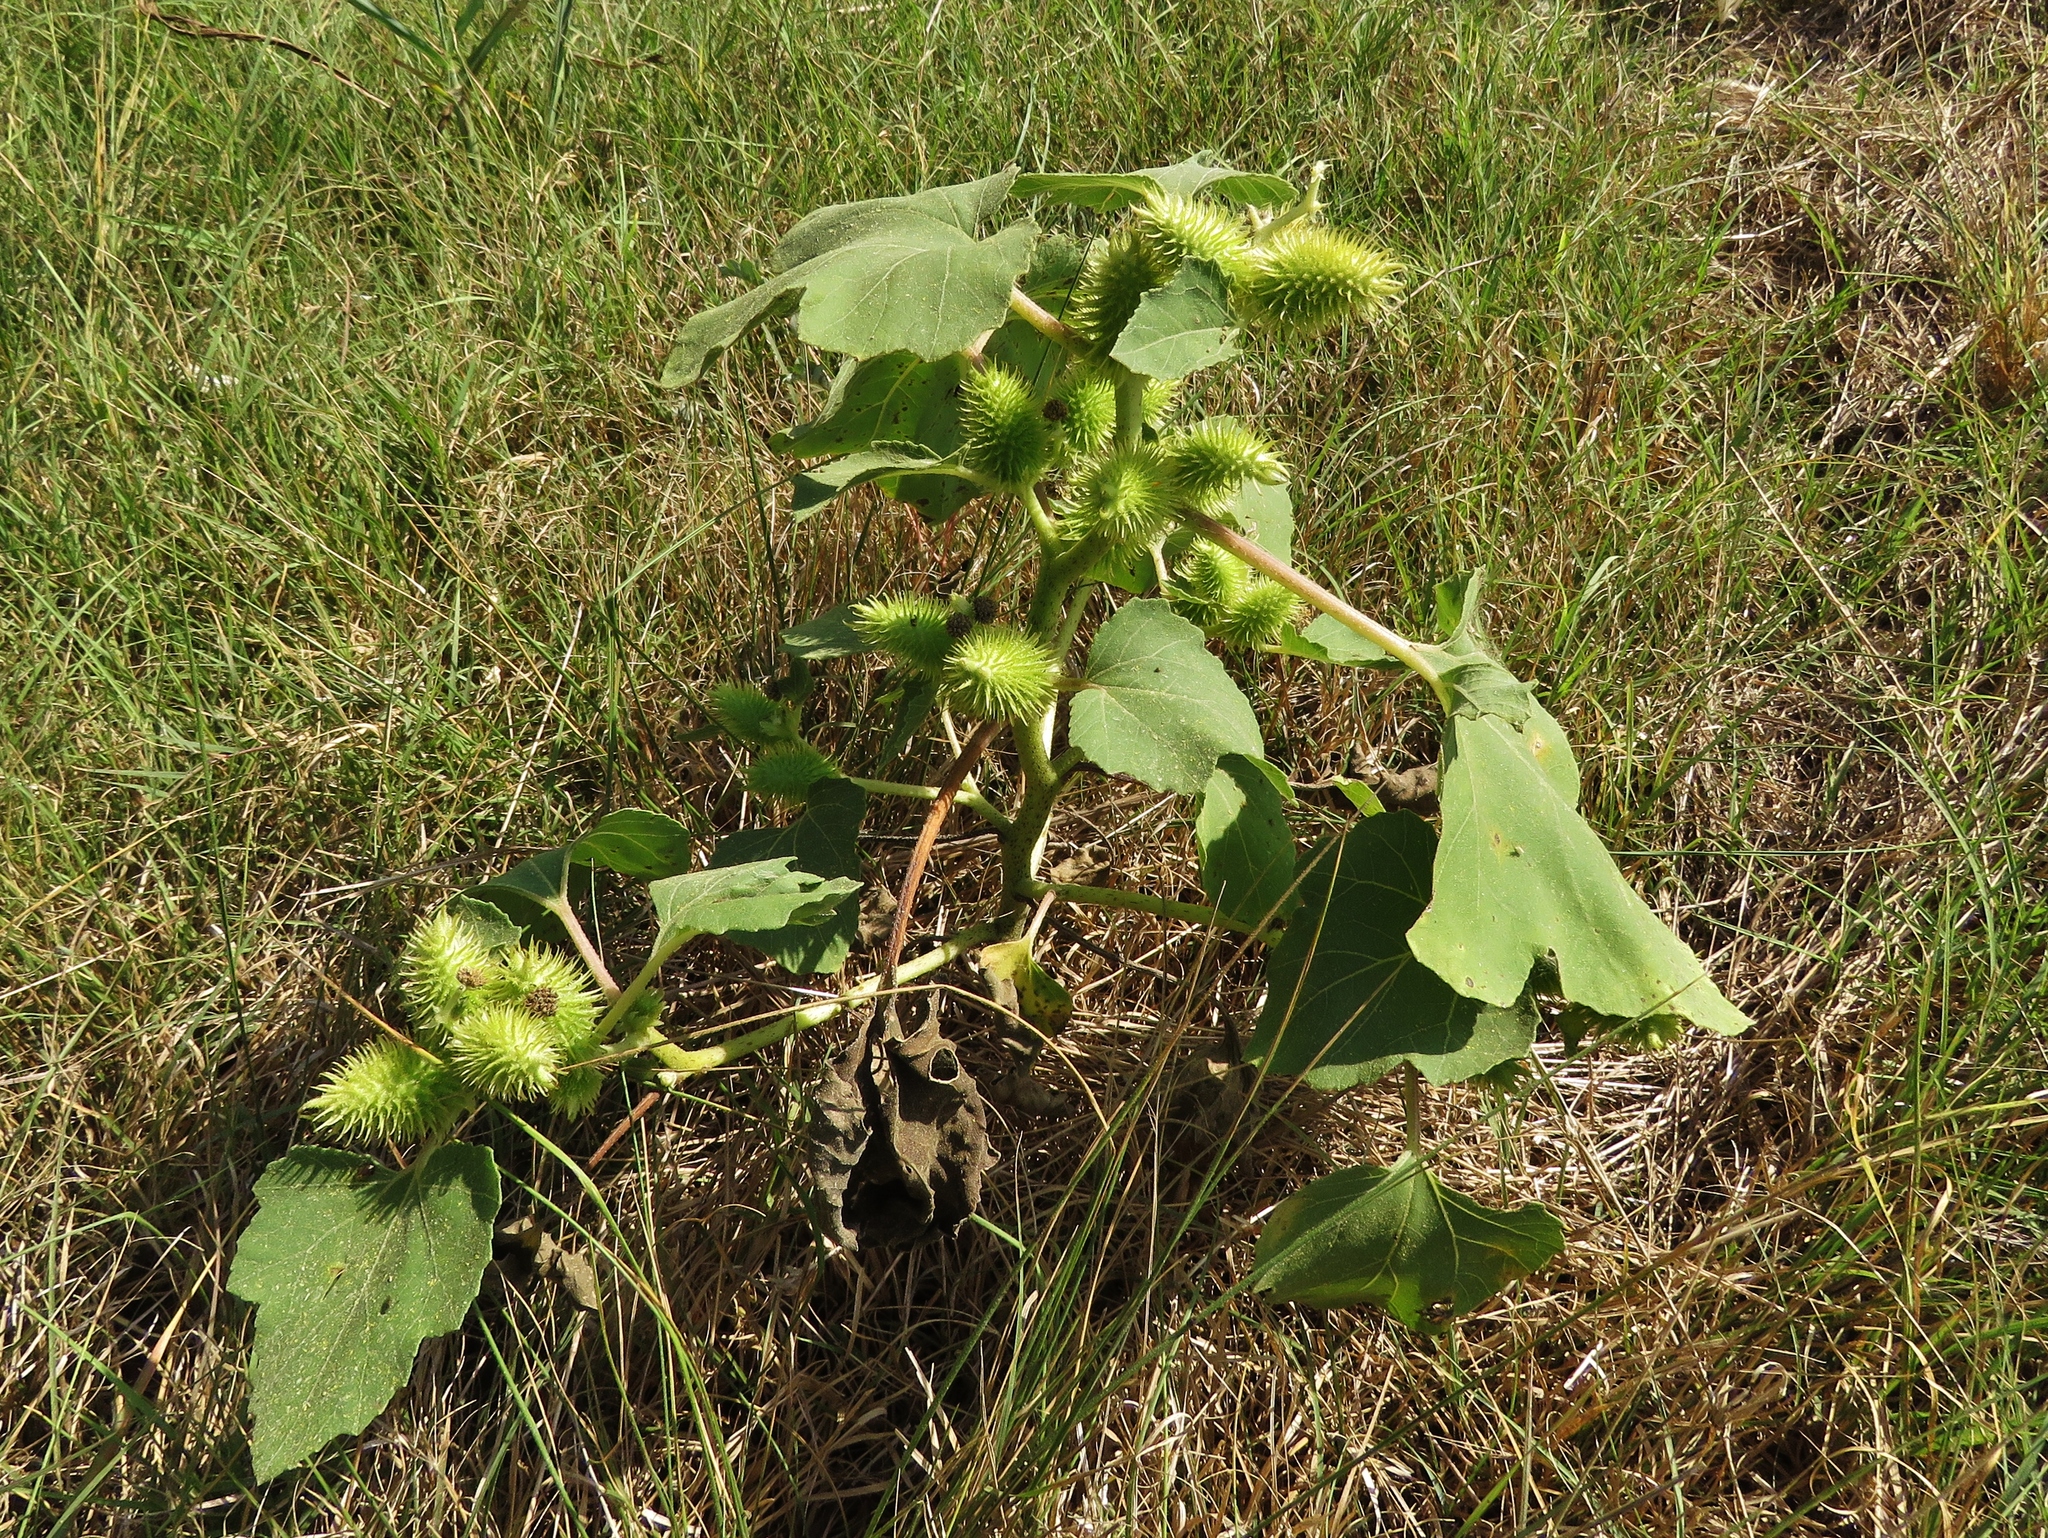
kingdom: Plantae
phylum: Tracheophyta
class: Magnoliopsida
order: Asterales
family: Asteraceae
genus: Xanthium
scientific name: Xanthium strumarium
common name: Rough cocklebur
